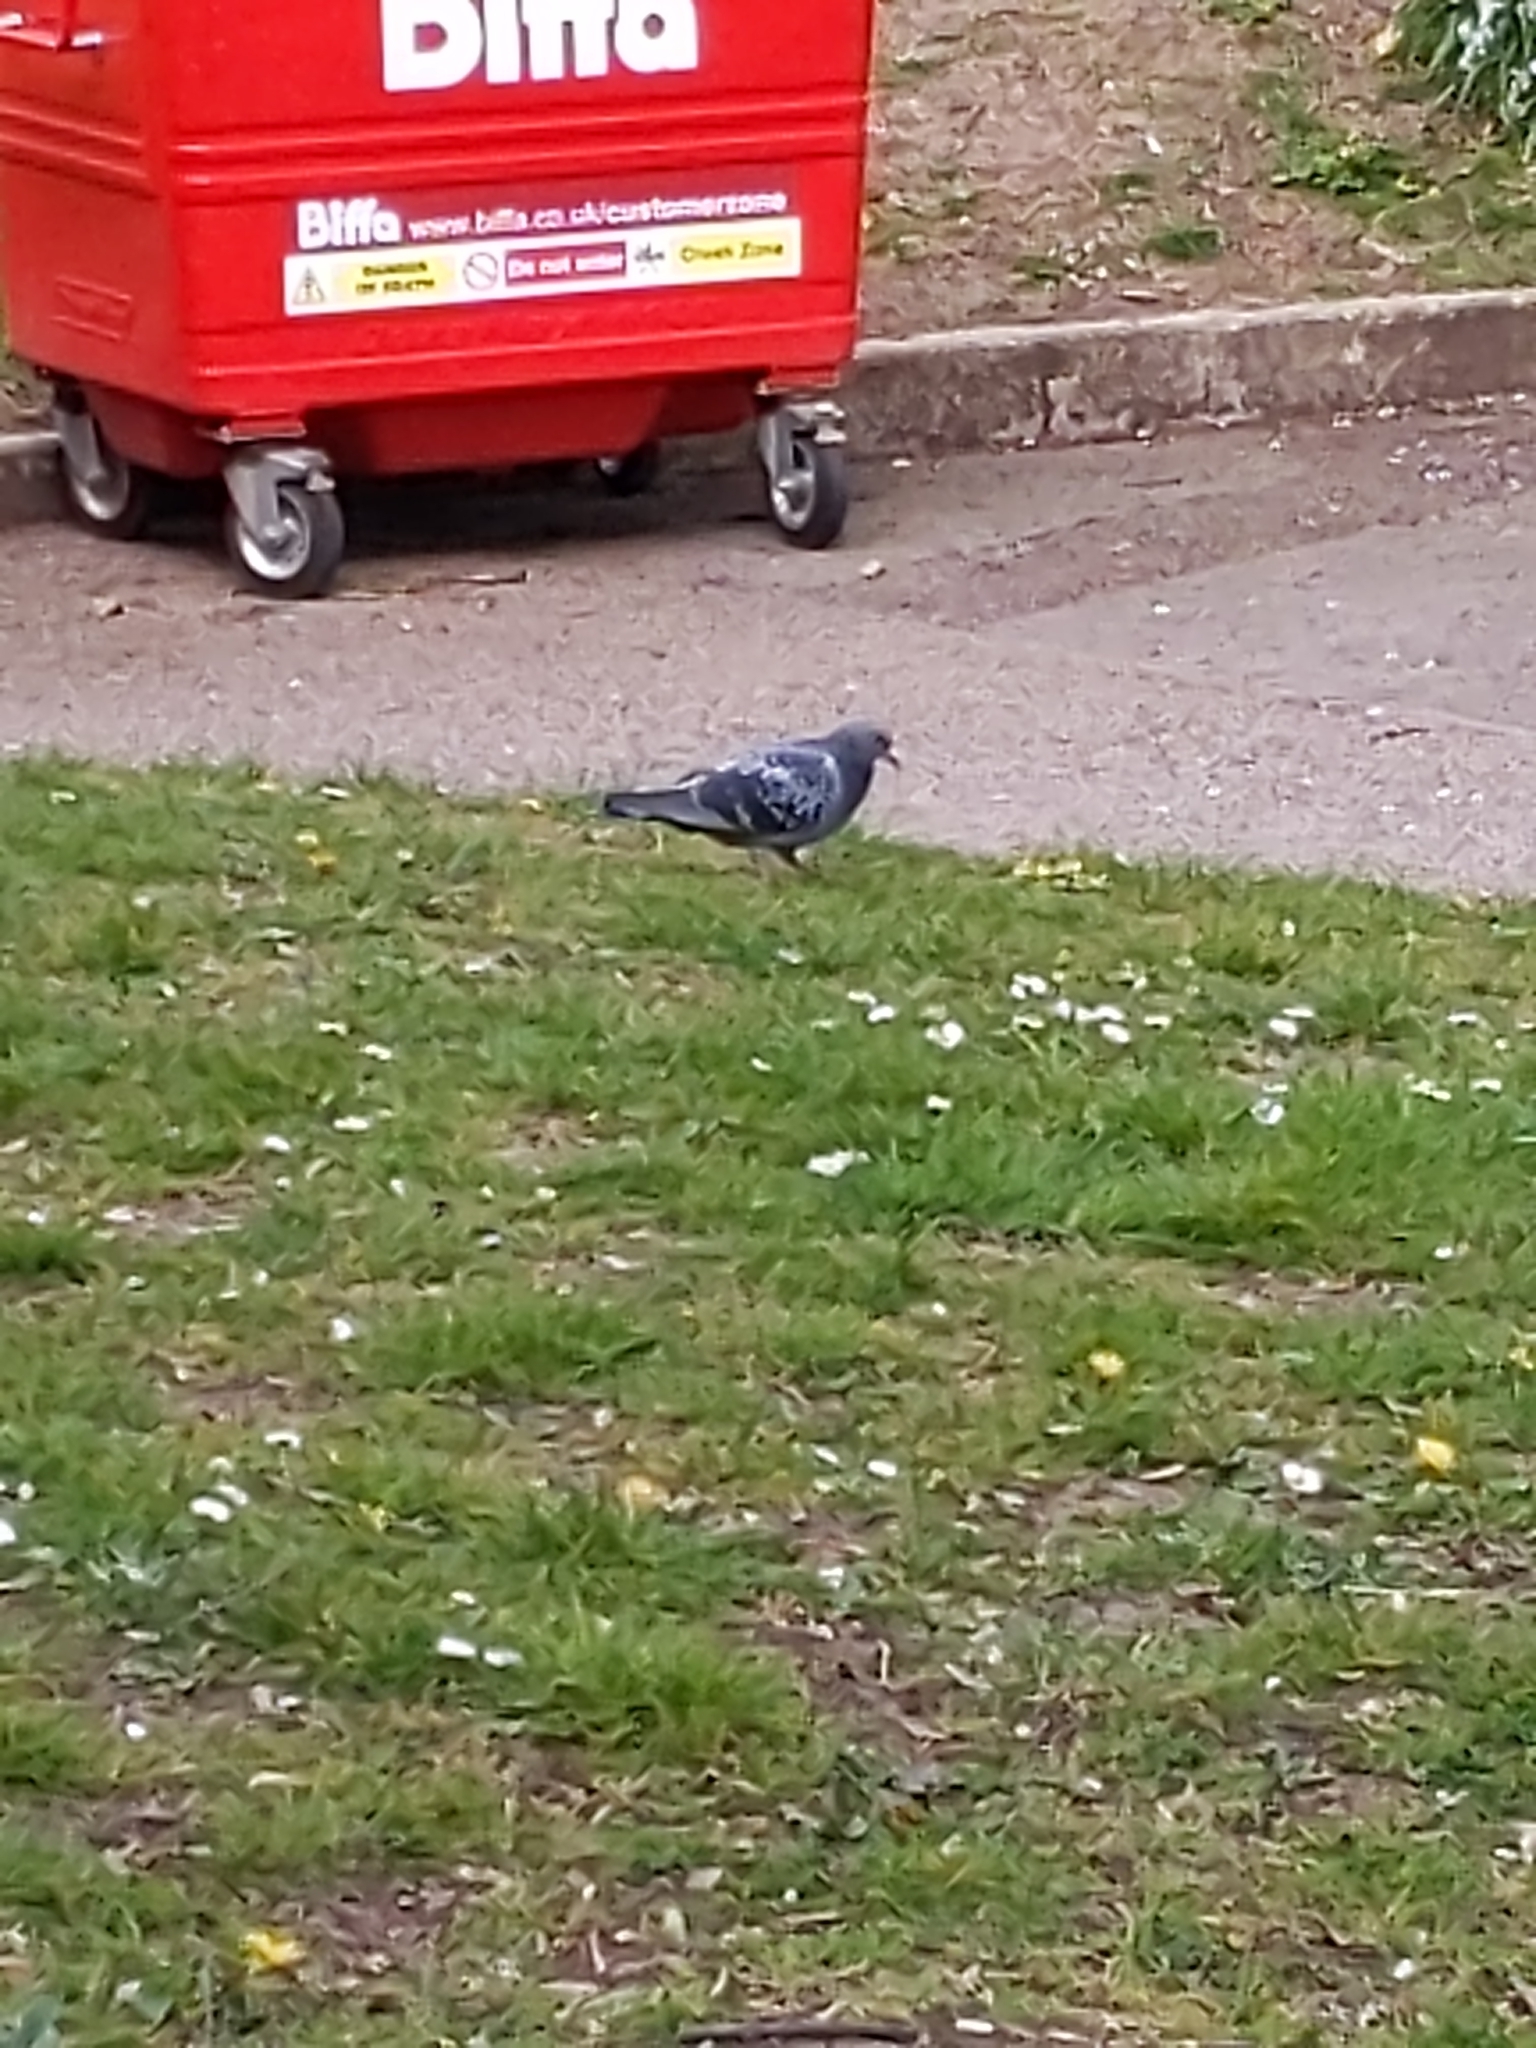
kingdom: Animalia
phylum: Chordata
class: Aves
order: Columbiformes
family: Columbidae
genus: Columba
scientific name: Columba livia
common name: Rock pigeon
